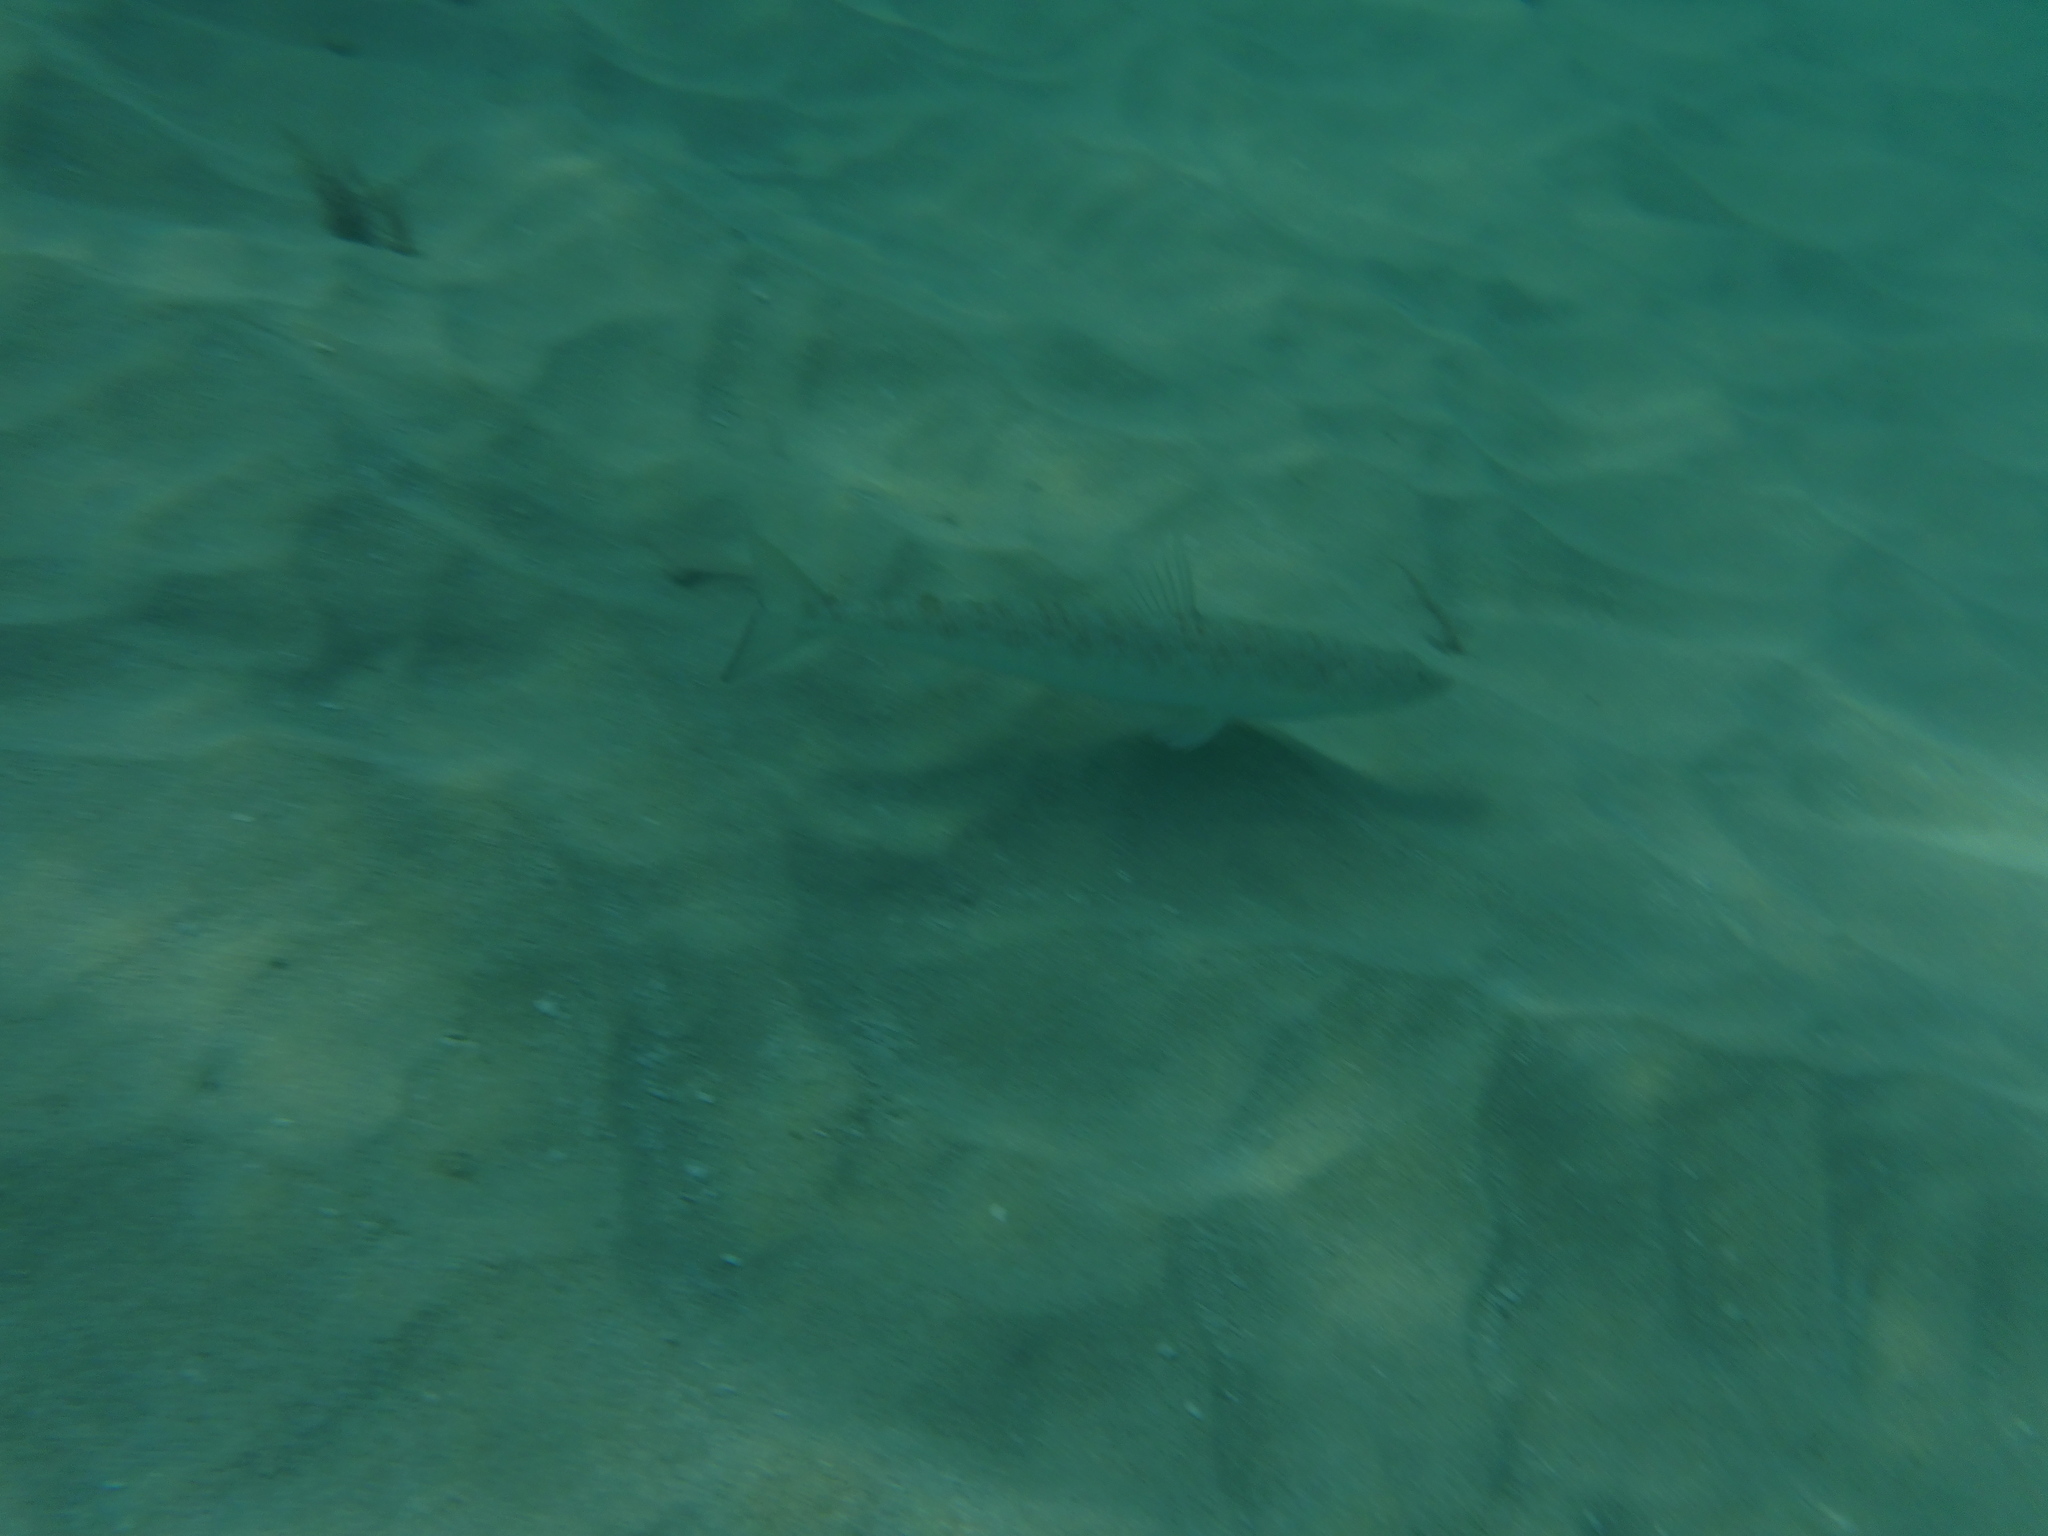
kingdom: Animalia
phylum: Chordata
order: Aulopiformes
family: Synodontidae
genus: Synodus
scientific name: Synodus intermedius
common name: Sand diver
